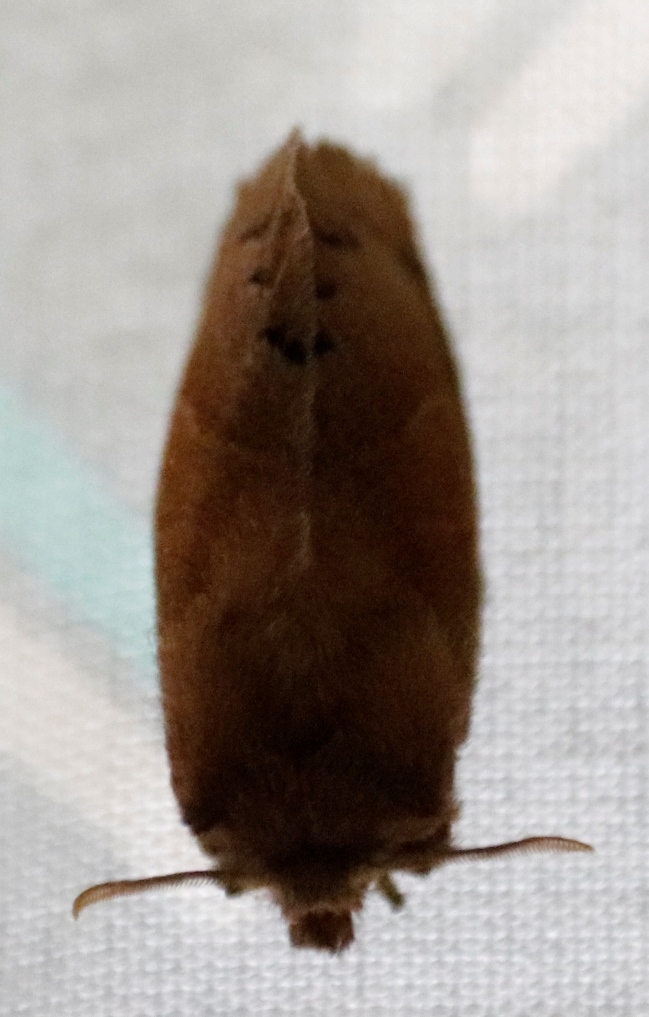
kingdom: Animalia
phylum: Arthropoda
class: Insecta
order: Lepidoptera
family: Lasiocampidae
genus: Bombycopsis
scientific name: Bombycopsis capicola
